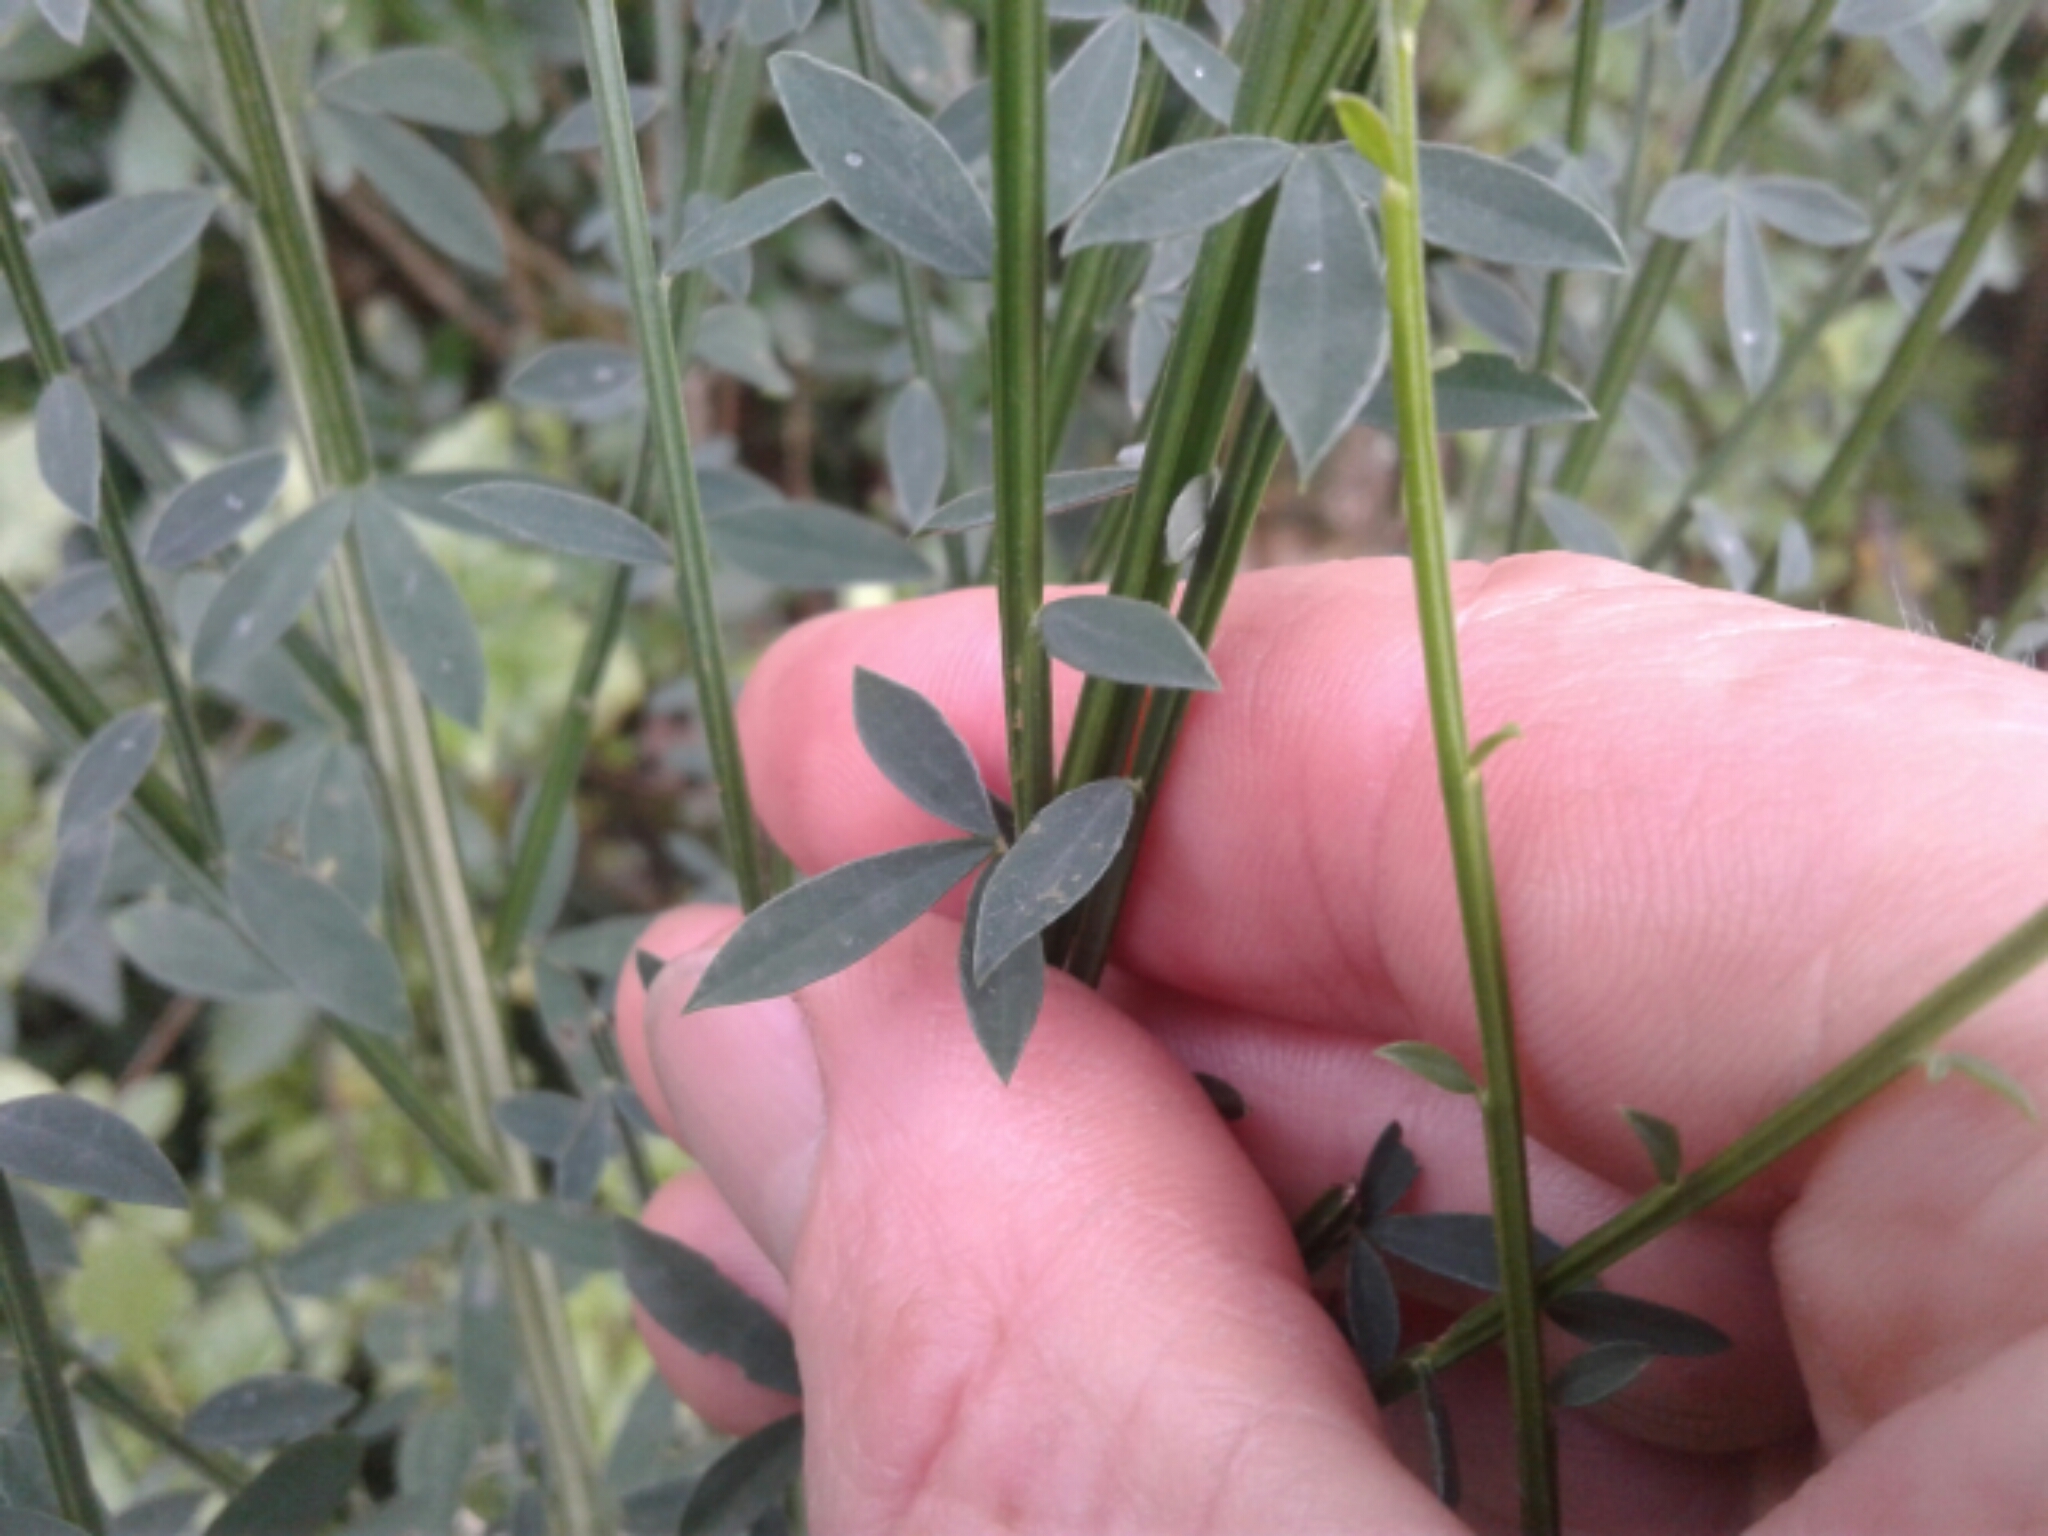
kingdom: Plantae
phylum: Tracheophyta
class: Magnoliopsida
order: Fabales
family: Fabaceae
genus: Cytisus
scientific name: Cytisus scoparius
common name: Scotch broom
